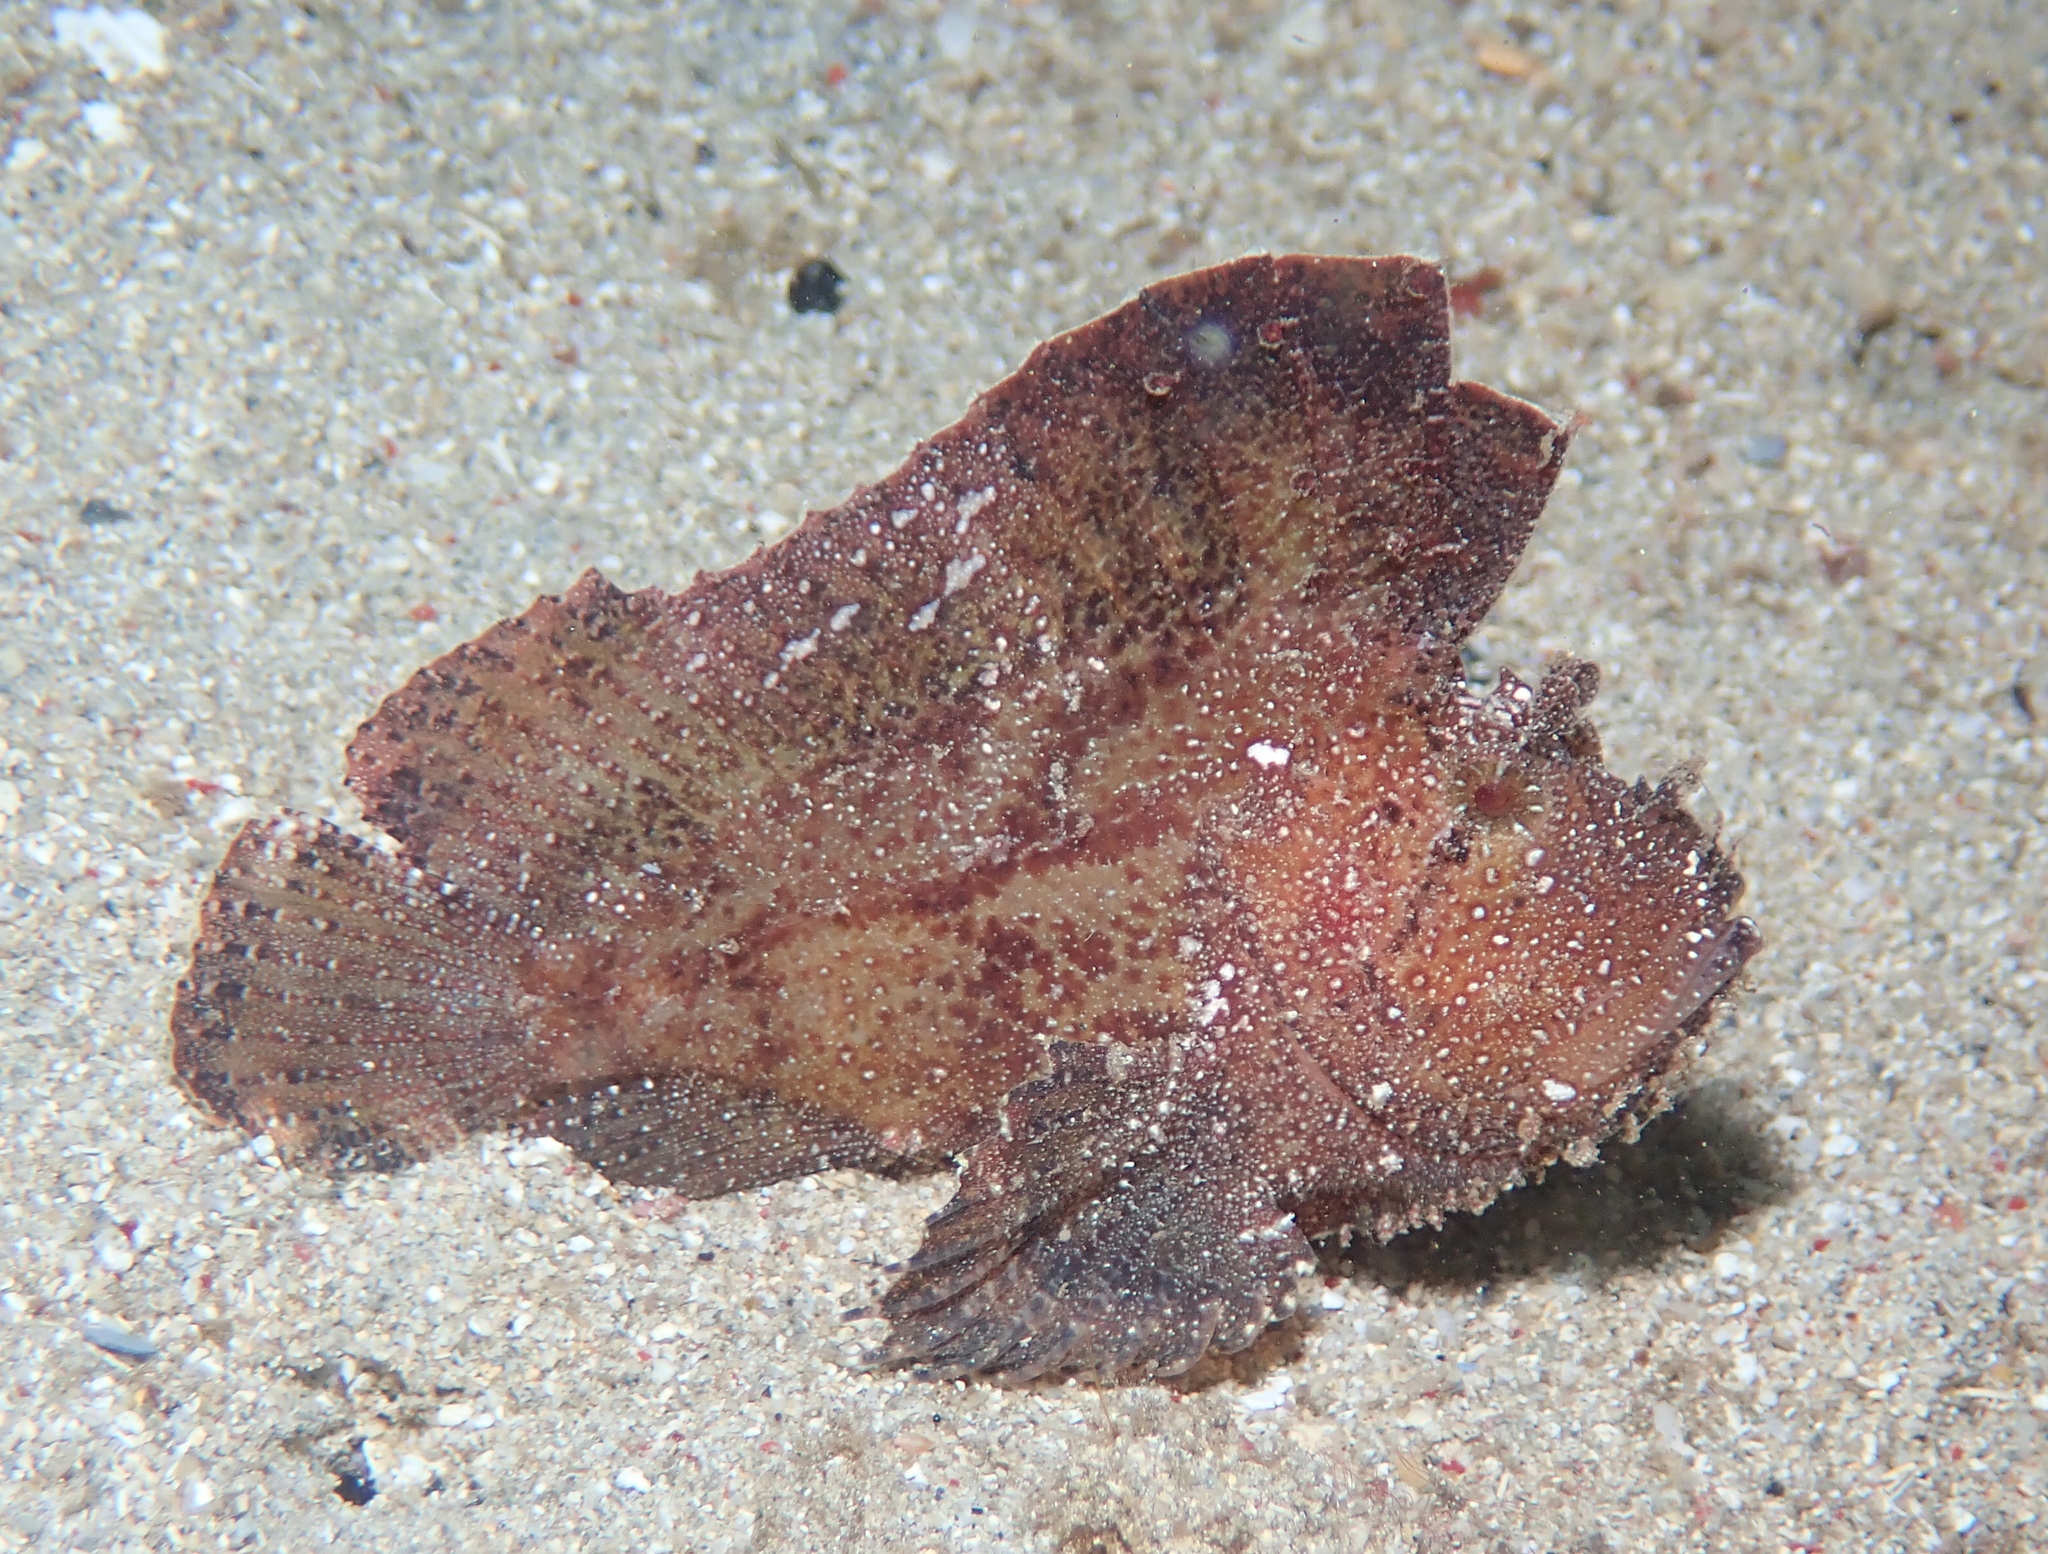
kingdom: Animalia
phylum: Chordata
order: Scorpaeniformes
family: Scorpaenidae
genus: Taenianotus
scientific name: Taenianotus triacanthus
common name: Leaf scorpionfish
